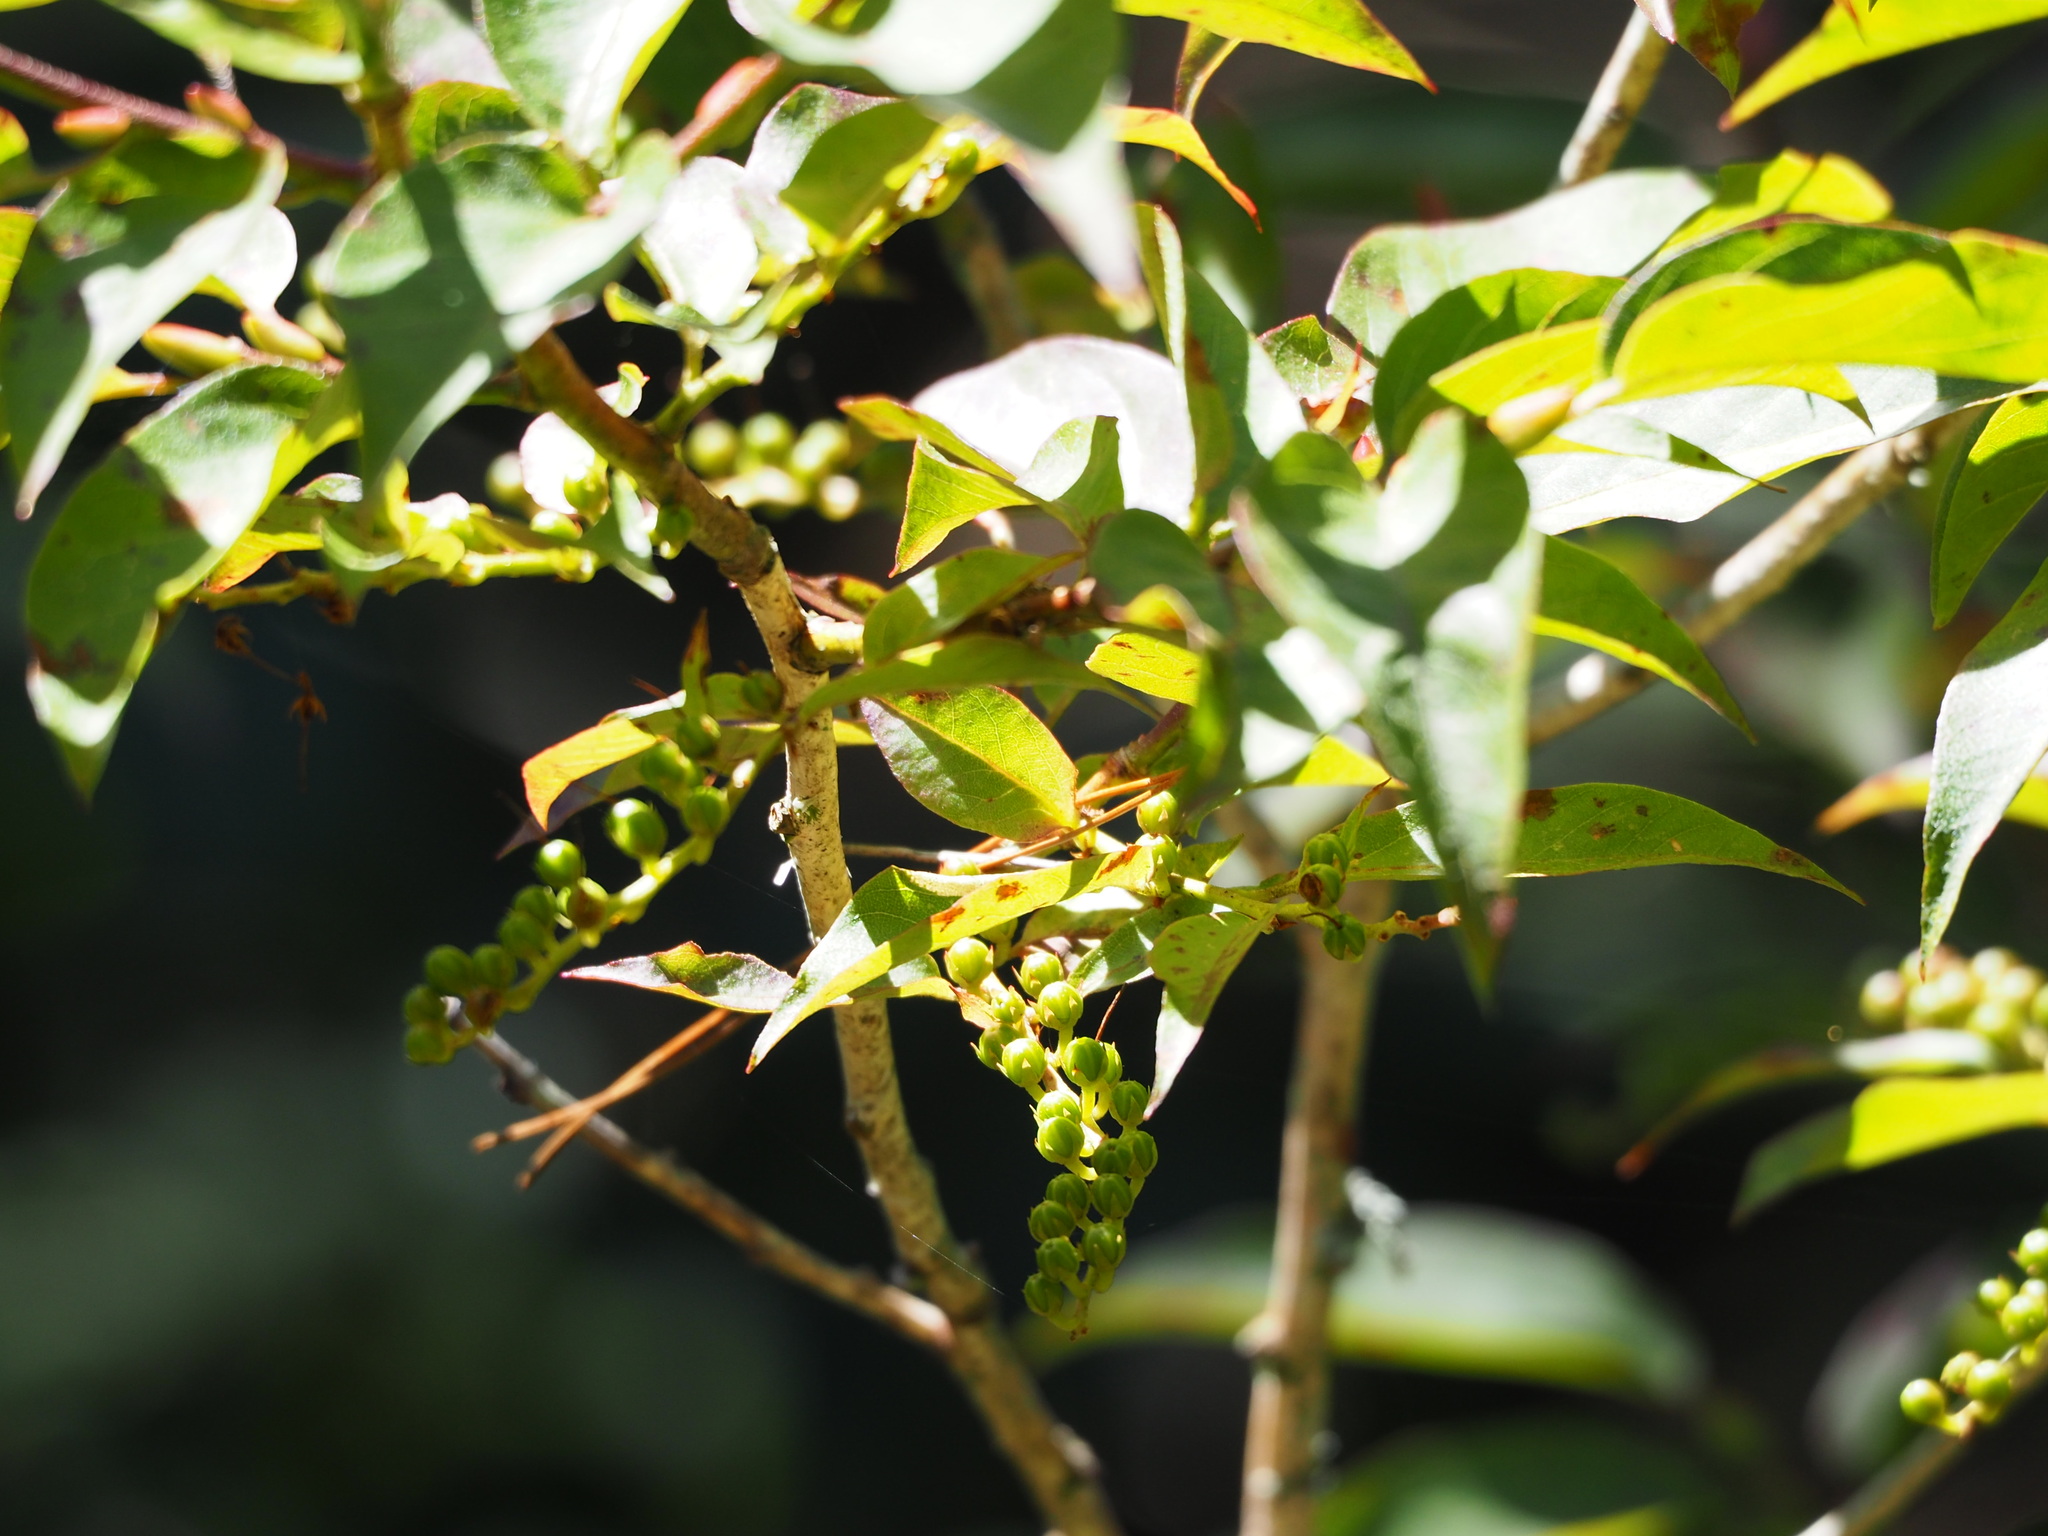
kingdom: Plantae
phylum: Tracheophyta
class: Magnoliopsida
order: Ericales
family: Ericaceae
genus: Lyonia
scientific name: Lyonia ovalifolia
